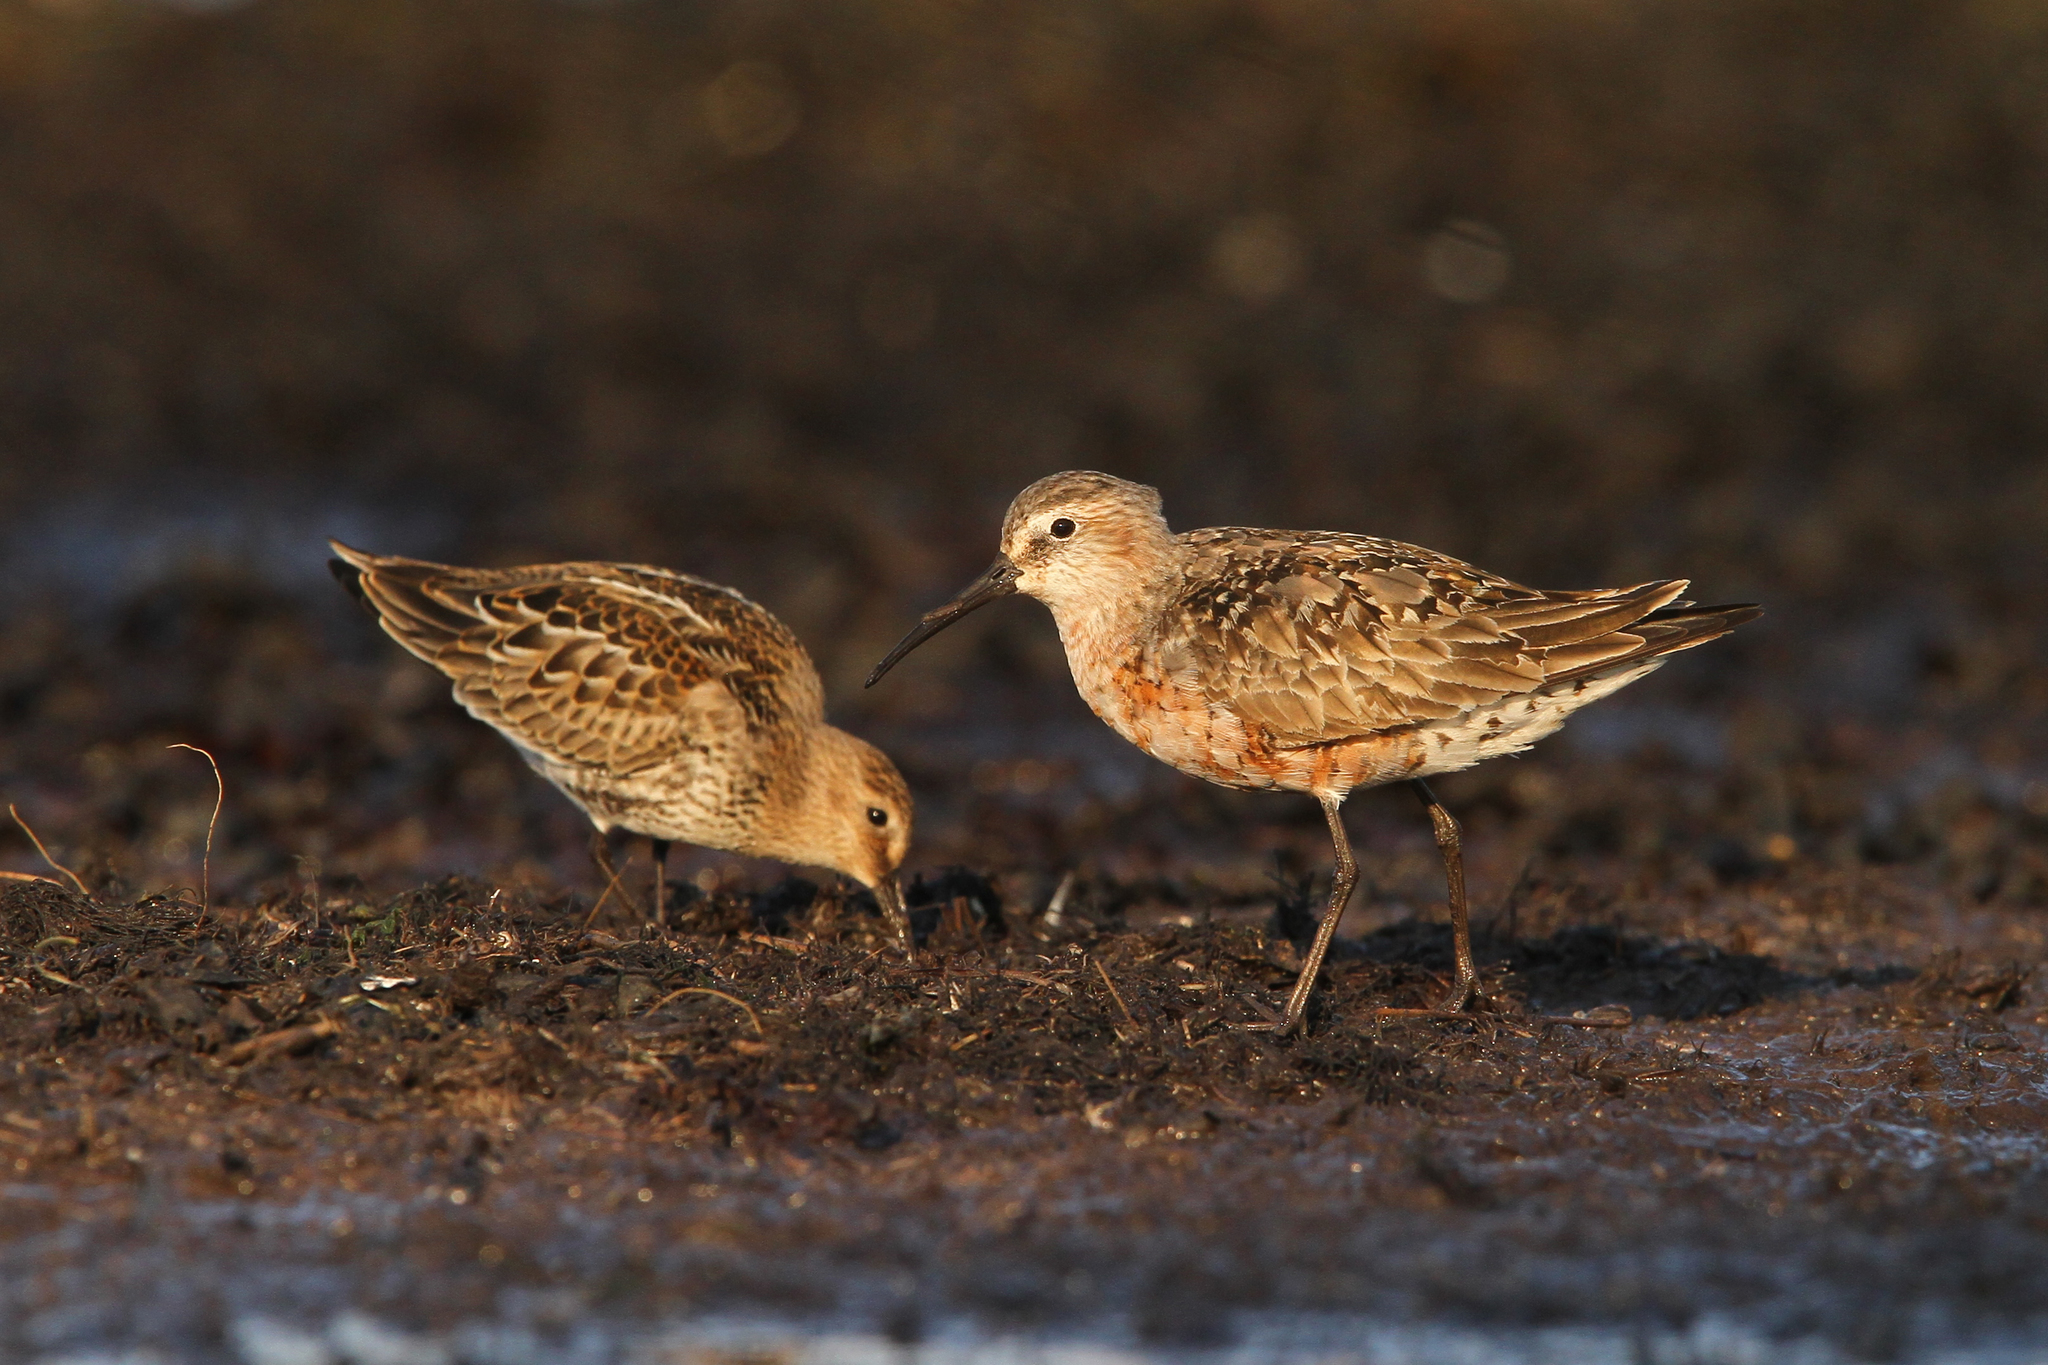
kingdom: Animalia
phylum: Chordata
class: Aves
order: Charadriiformes
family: Scolopacidae
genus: Calidris
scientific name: Calidris ferruginea
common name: Curlew sandpiper
